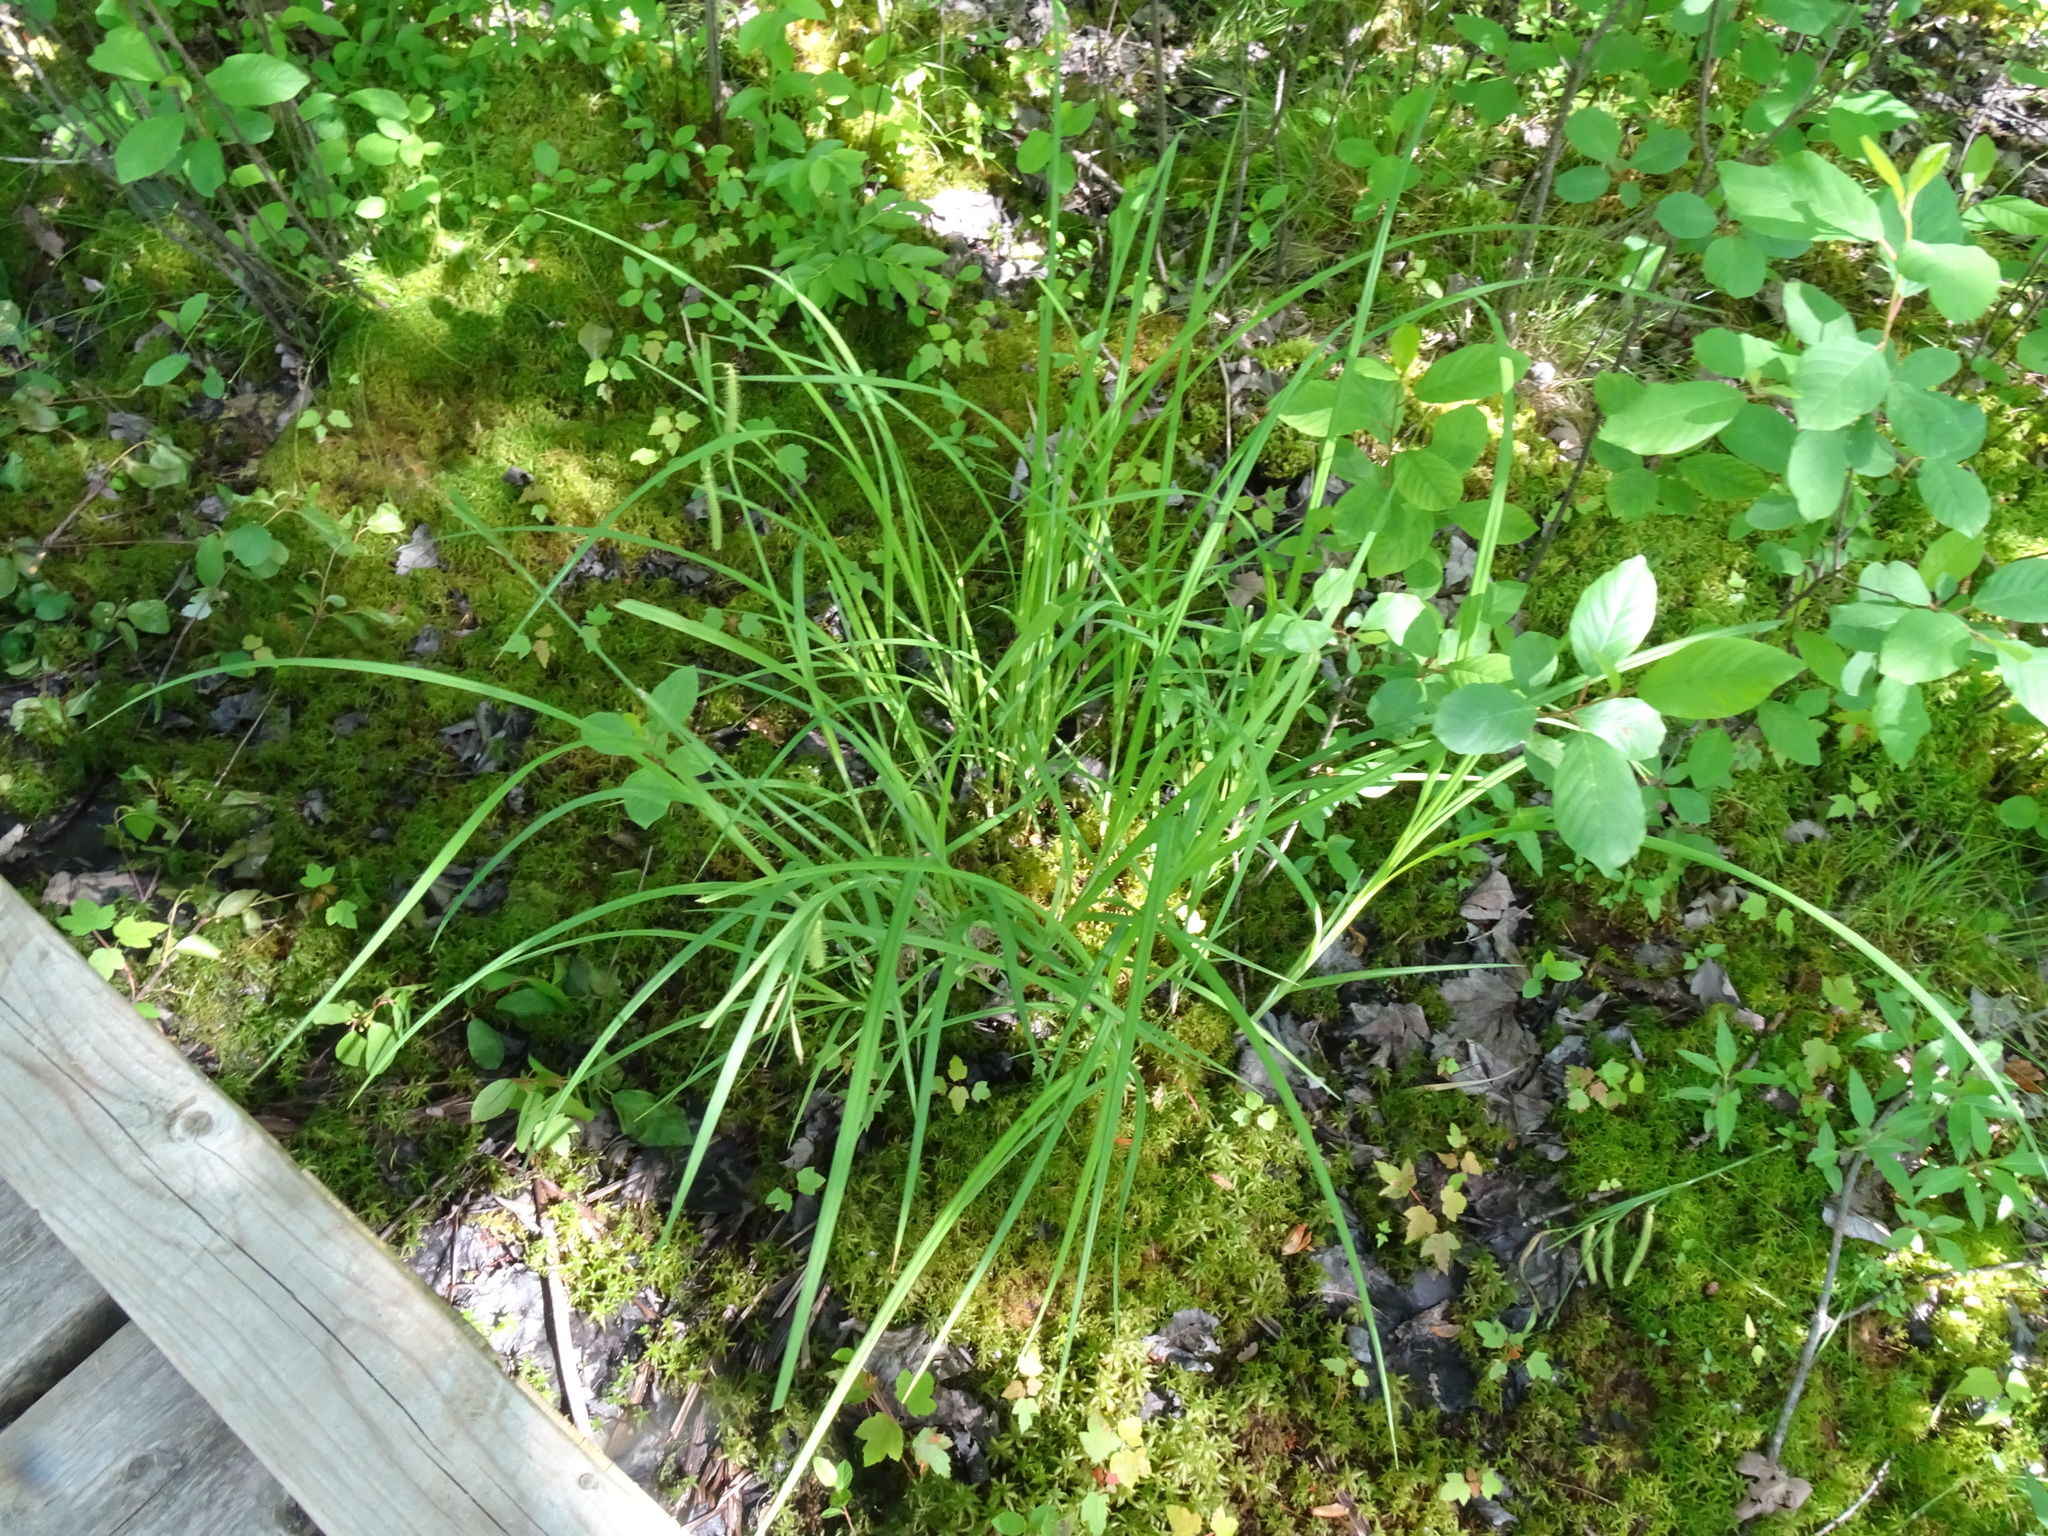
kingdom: Plantae
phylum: Tracheophyta
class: Liliopsida
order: Poales
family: Cyperaceae
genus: Carex
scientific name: Carex crinita
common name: Fringed sedge
